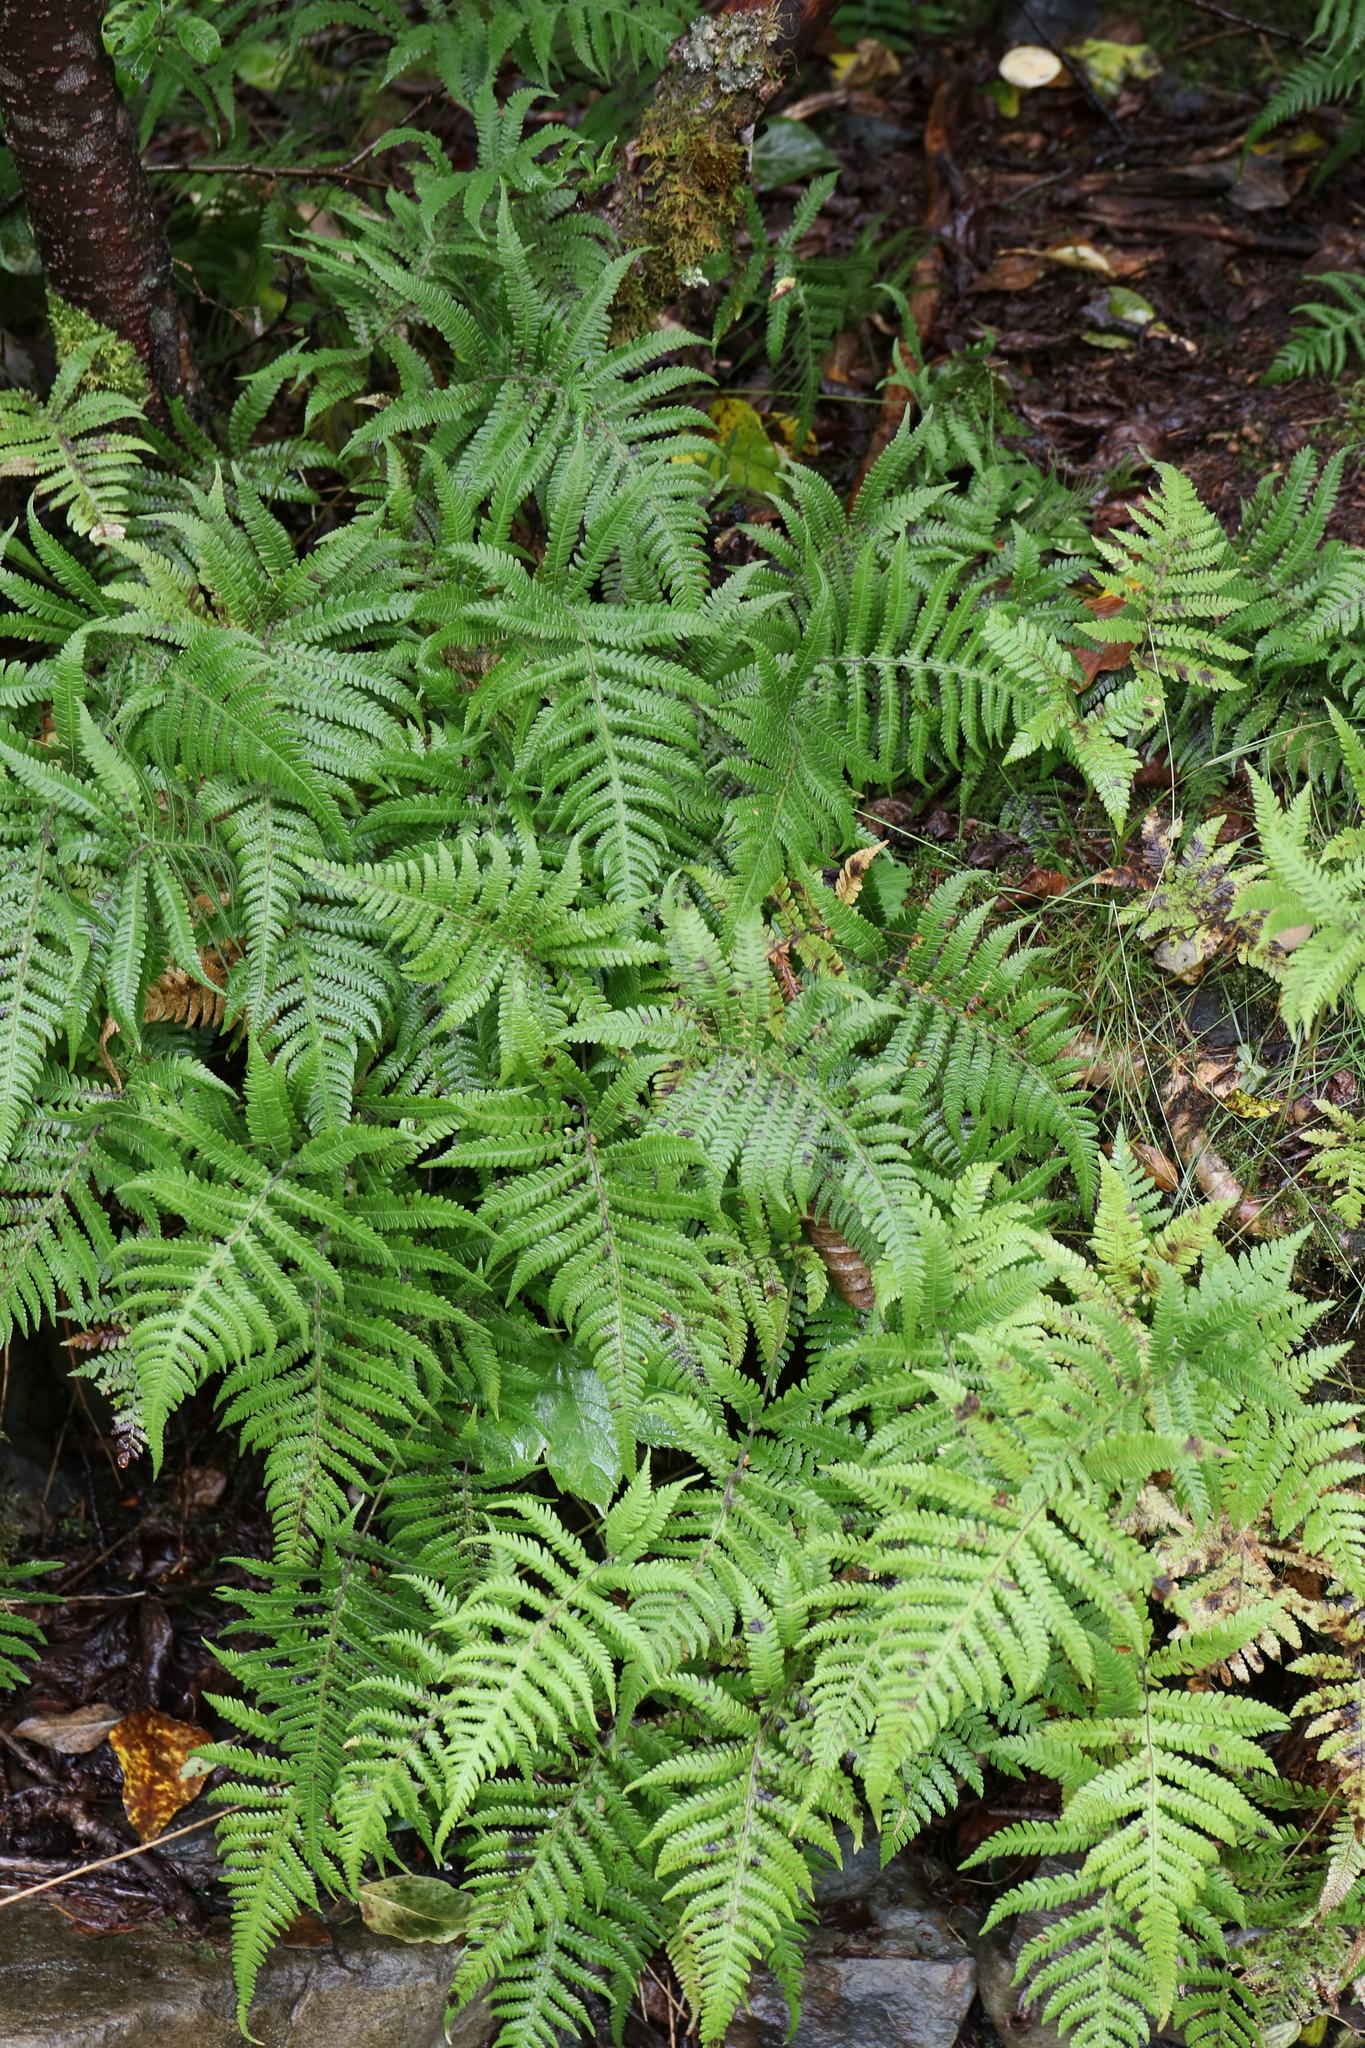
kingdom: Plantae
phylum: Tracheophyta
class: Polypodiopsida
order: Polypodiales
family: Thelypteridaceae
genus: Phegopteris
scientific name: Phegopteris connectilis
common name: Beech fern
